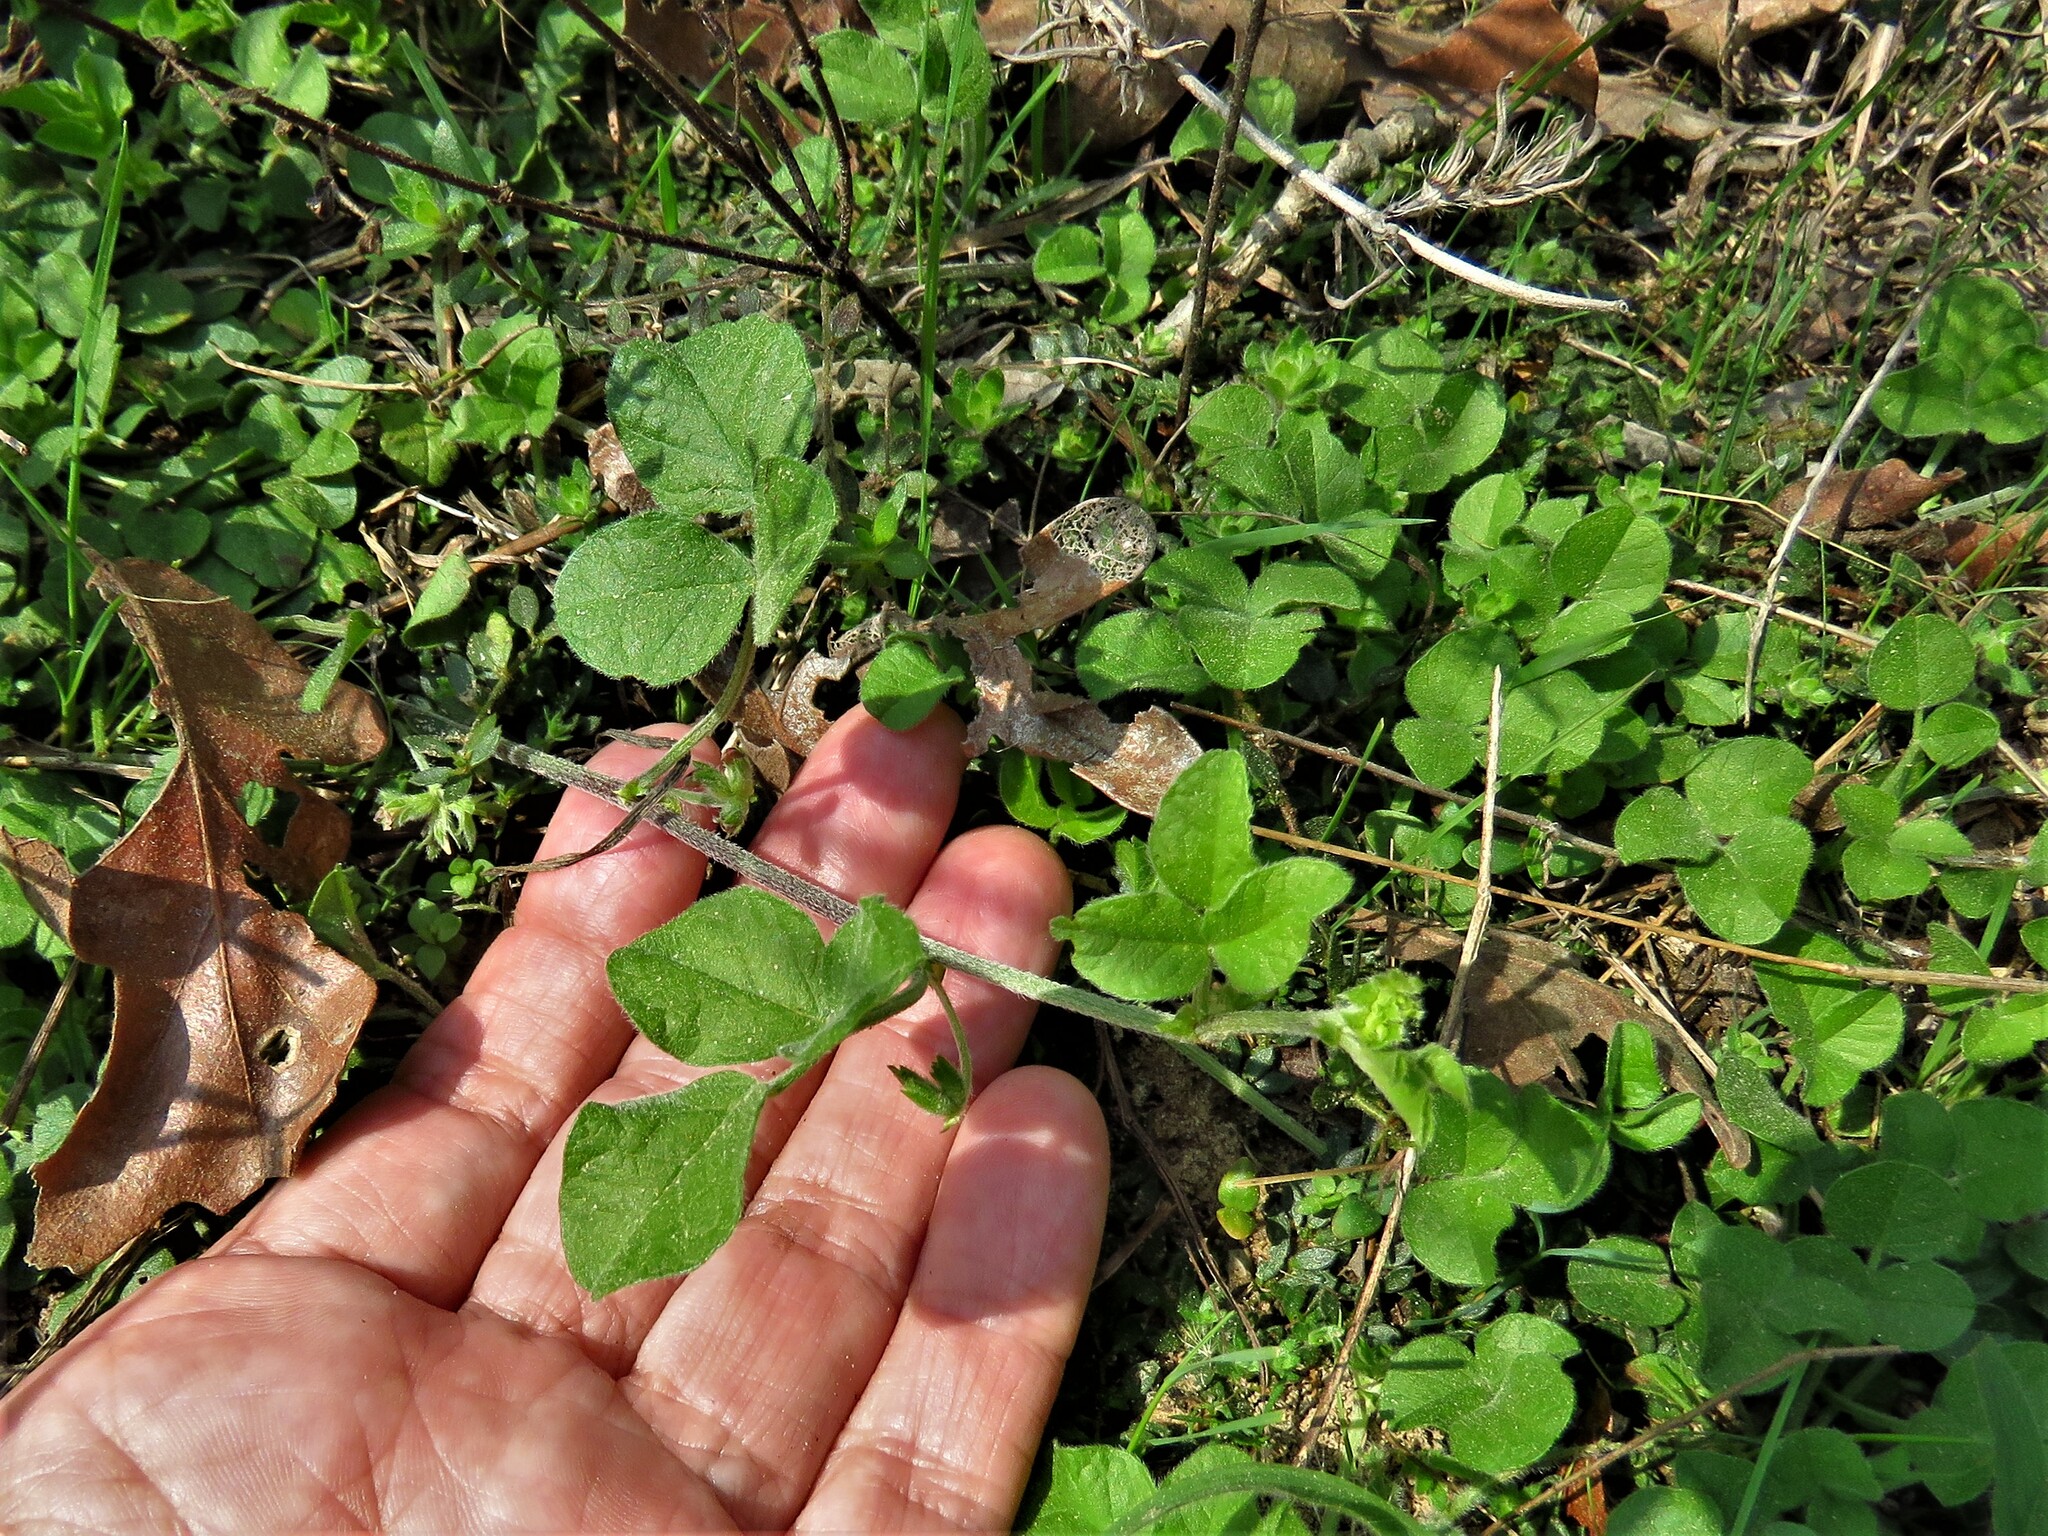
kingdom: Plantae
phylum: Tracheophyta
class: Magnoliopsida
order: Fabales
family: Fabaceae
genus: Pediomelum
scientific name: Pediomelum rhombifolium
